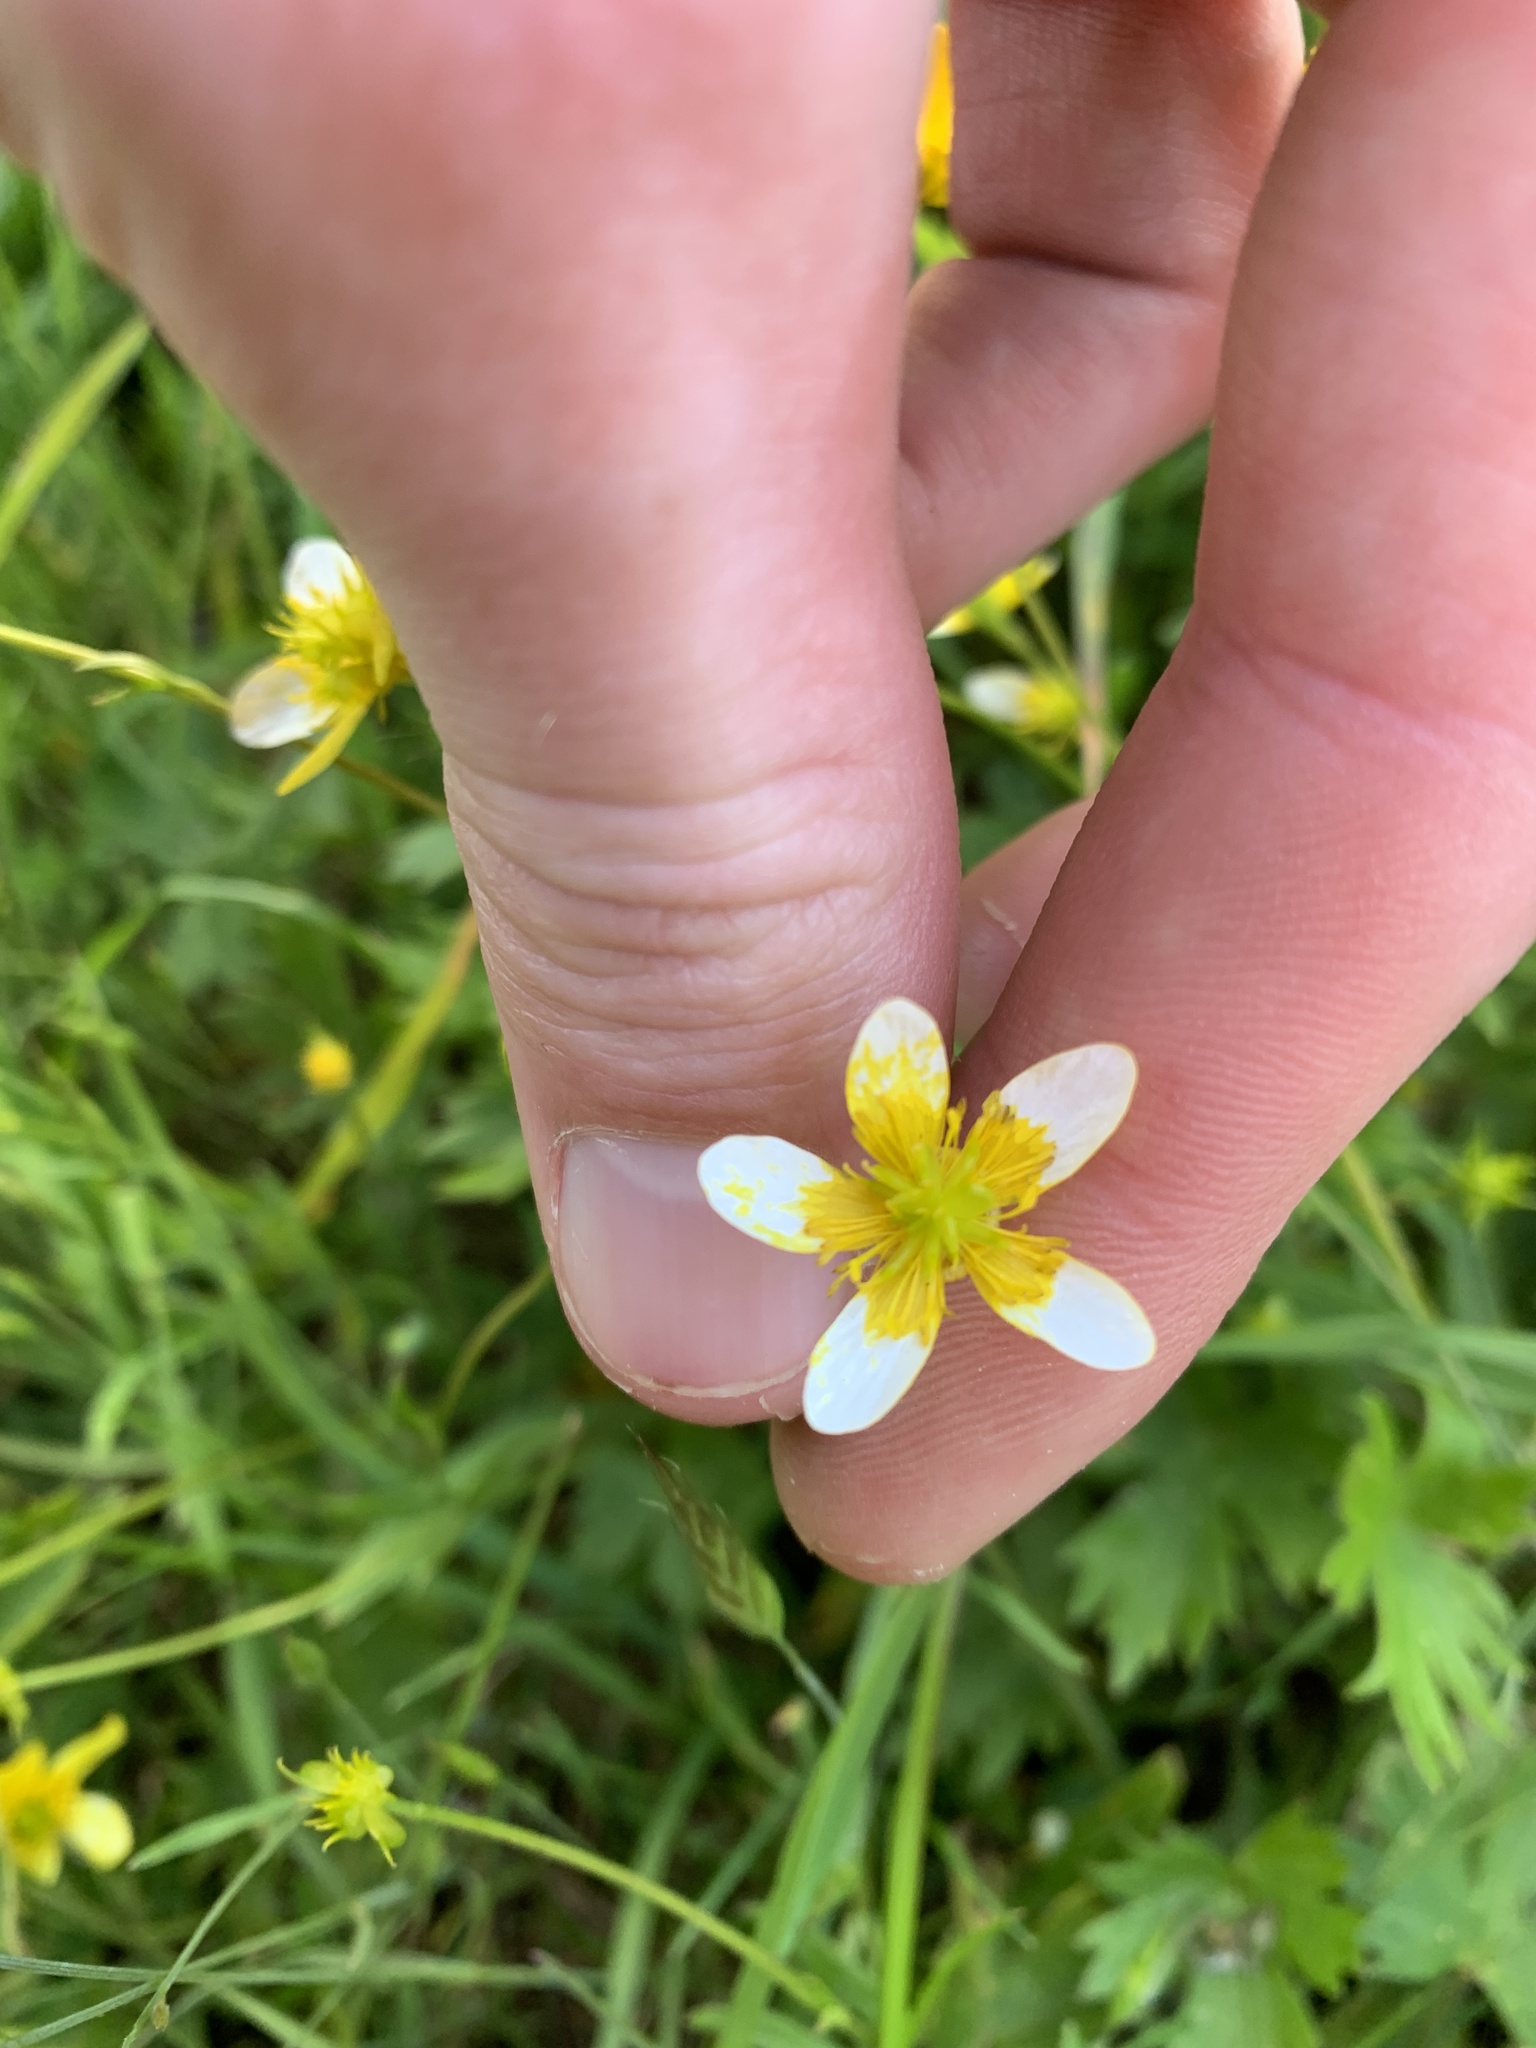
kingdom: Plantae
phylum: Tracheophyta
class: Magnoliopsida
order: Ranunculales
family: Ranunculaceae
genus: Ranunculus
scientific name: Ranunculus occidentalis
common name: Western buttercup
